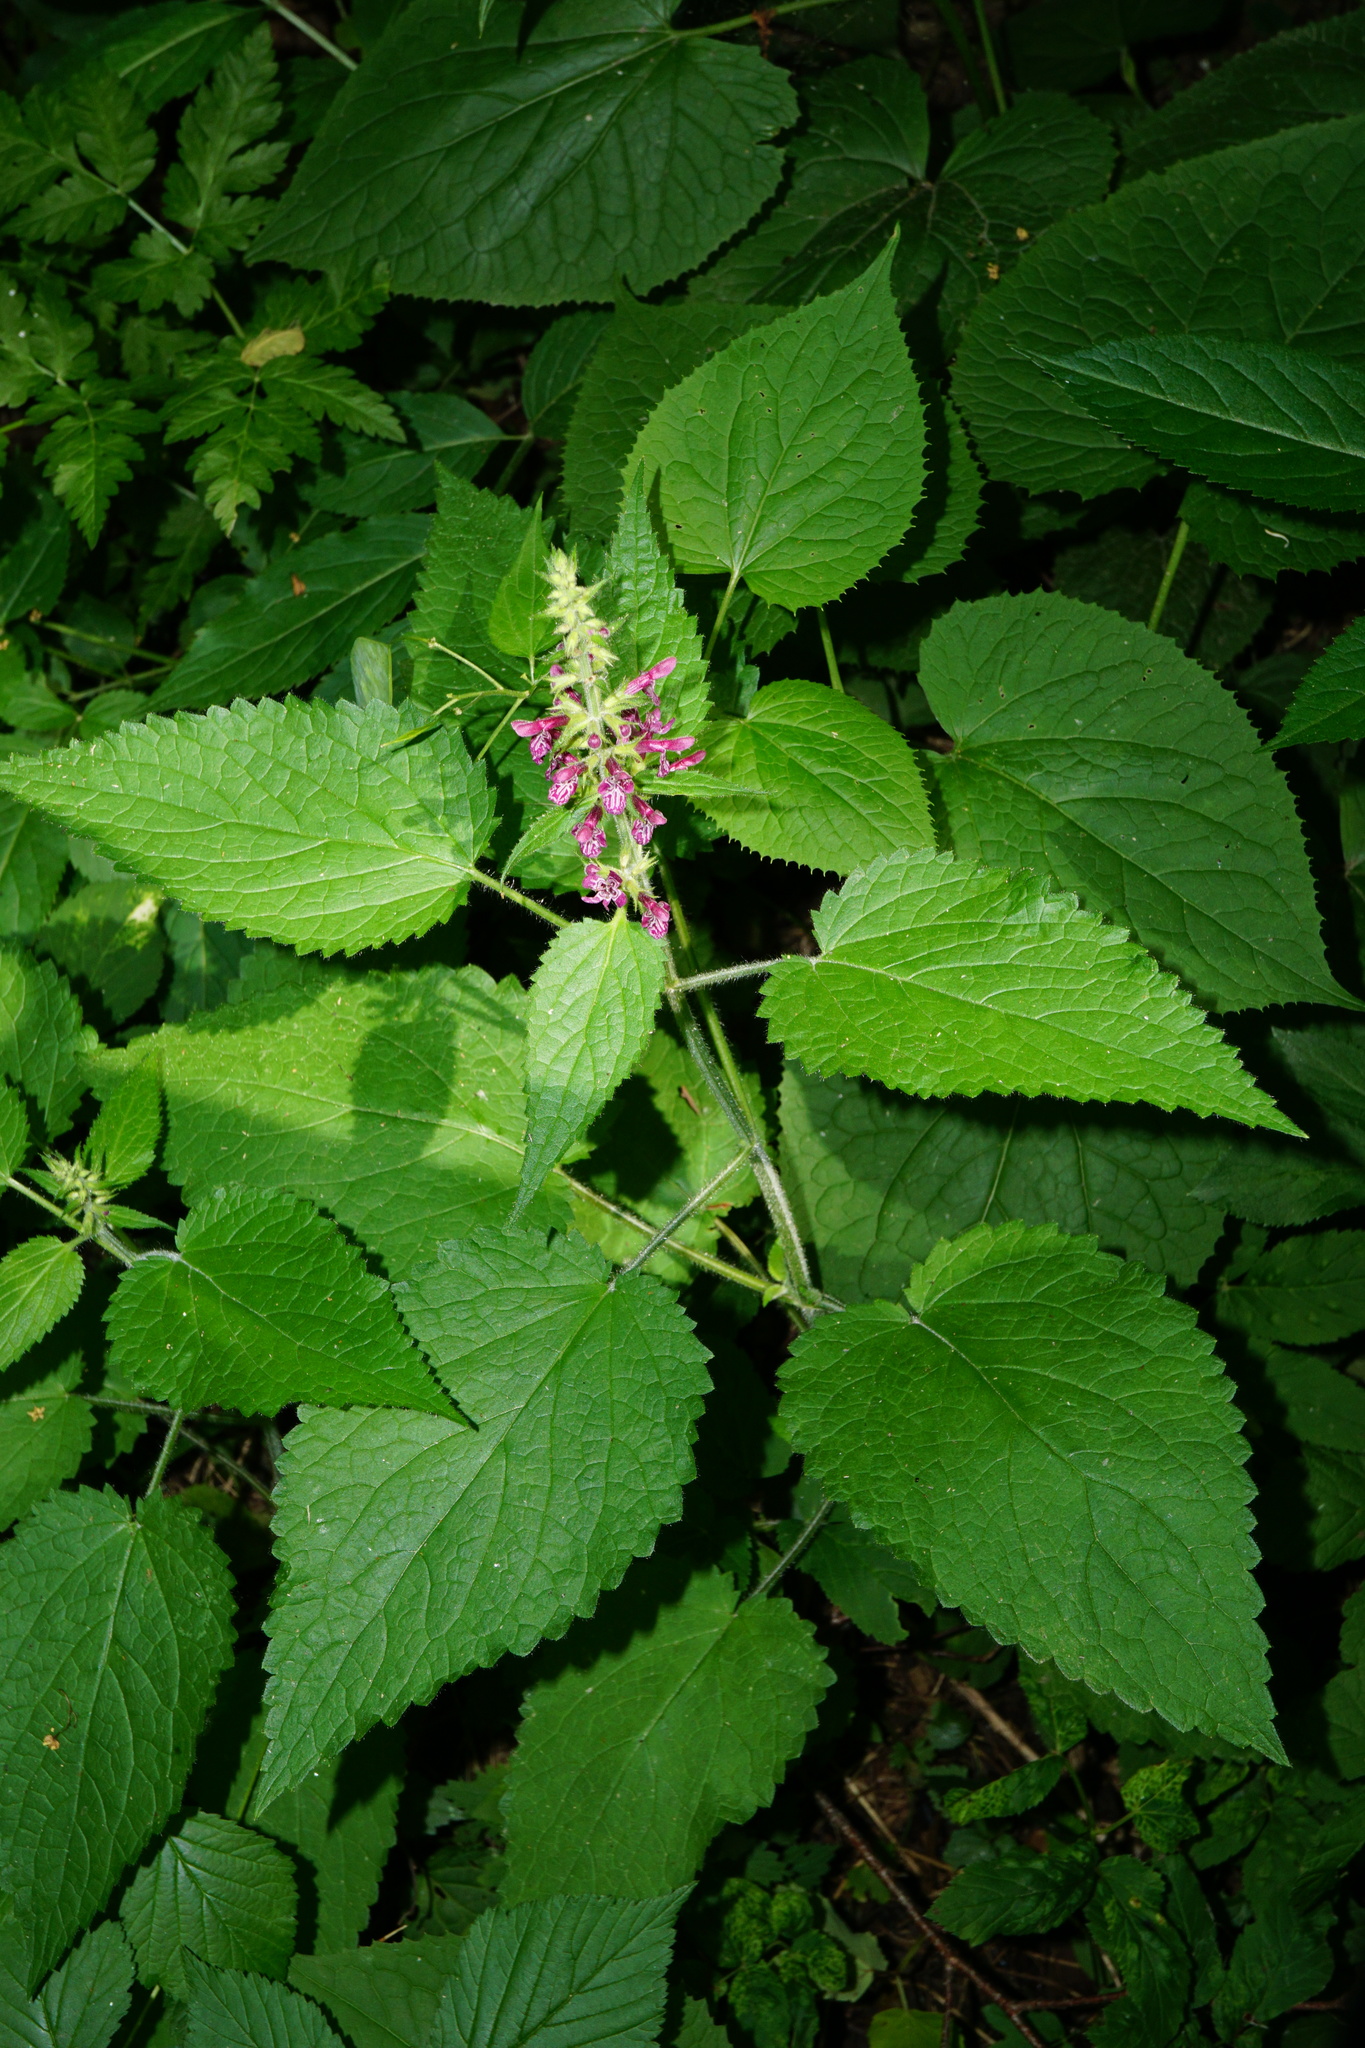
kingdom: Plantae
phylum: Tracheophyta
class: Magnoliopsida
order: Lamiales
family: Lamiaceae
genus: Stachys
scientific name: Stachys sylvatica
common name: Hedge woundwort
